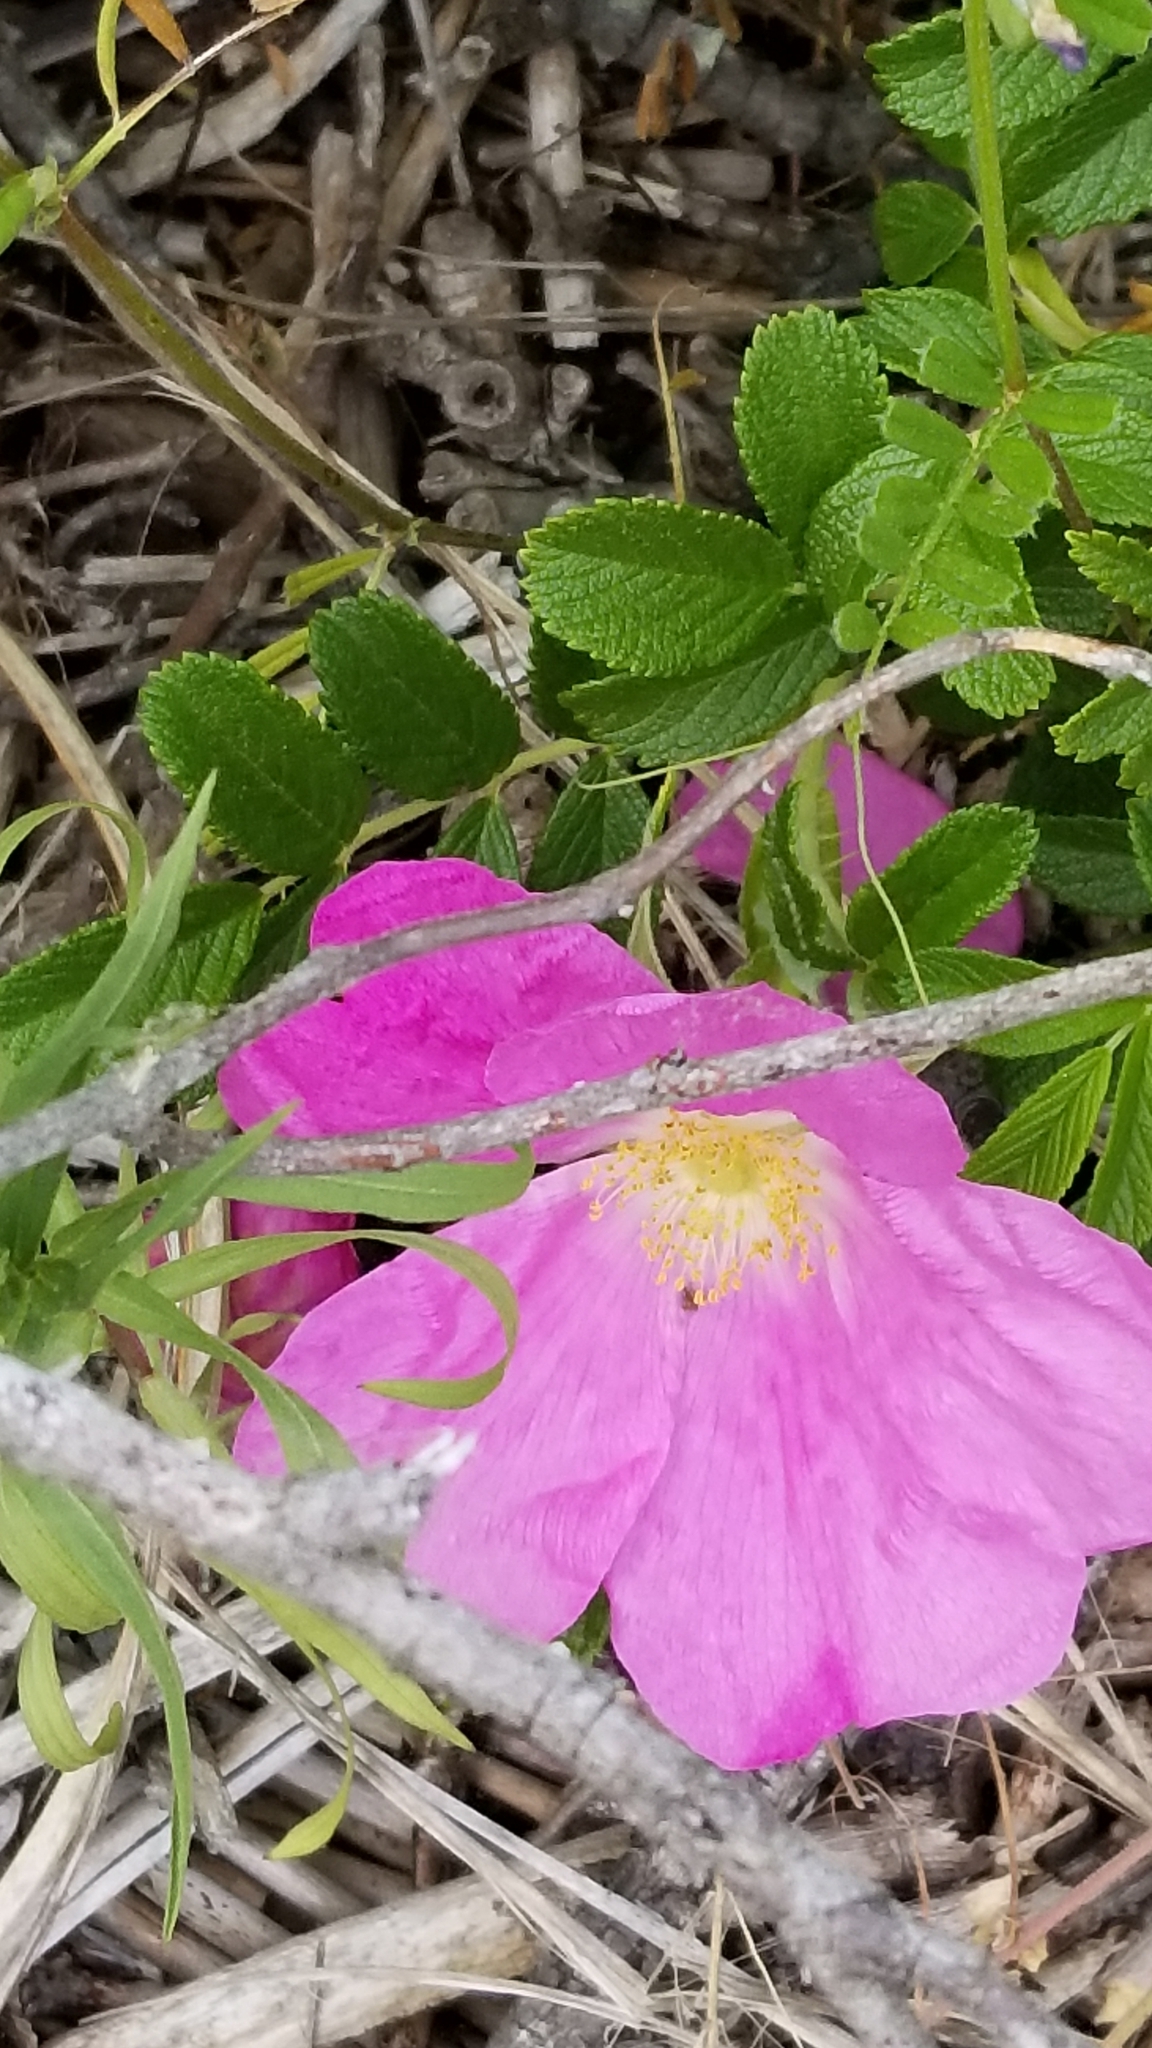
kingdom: Plantae
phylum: Tracheophyta
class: Magnoliopsida
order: Rosales
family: Rosaceae
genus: Rosa
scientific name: Rosa rugosa
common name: Japanese rose
